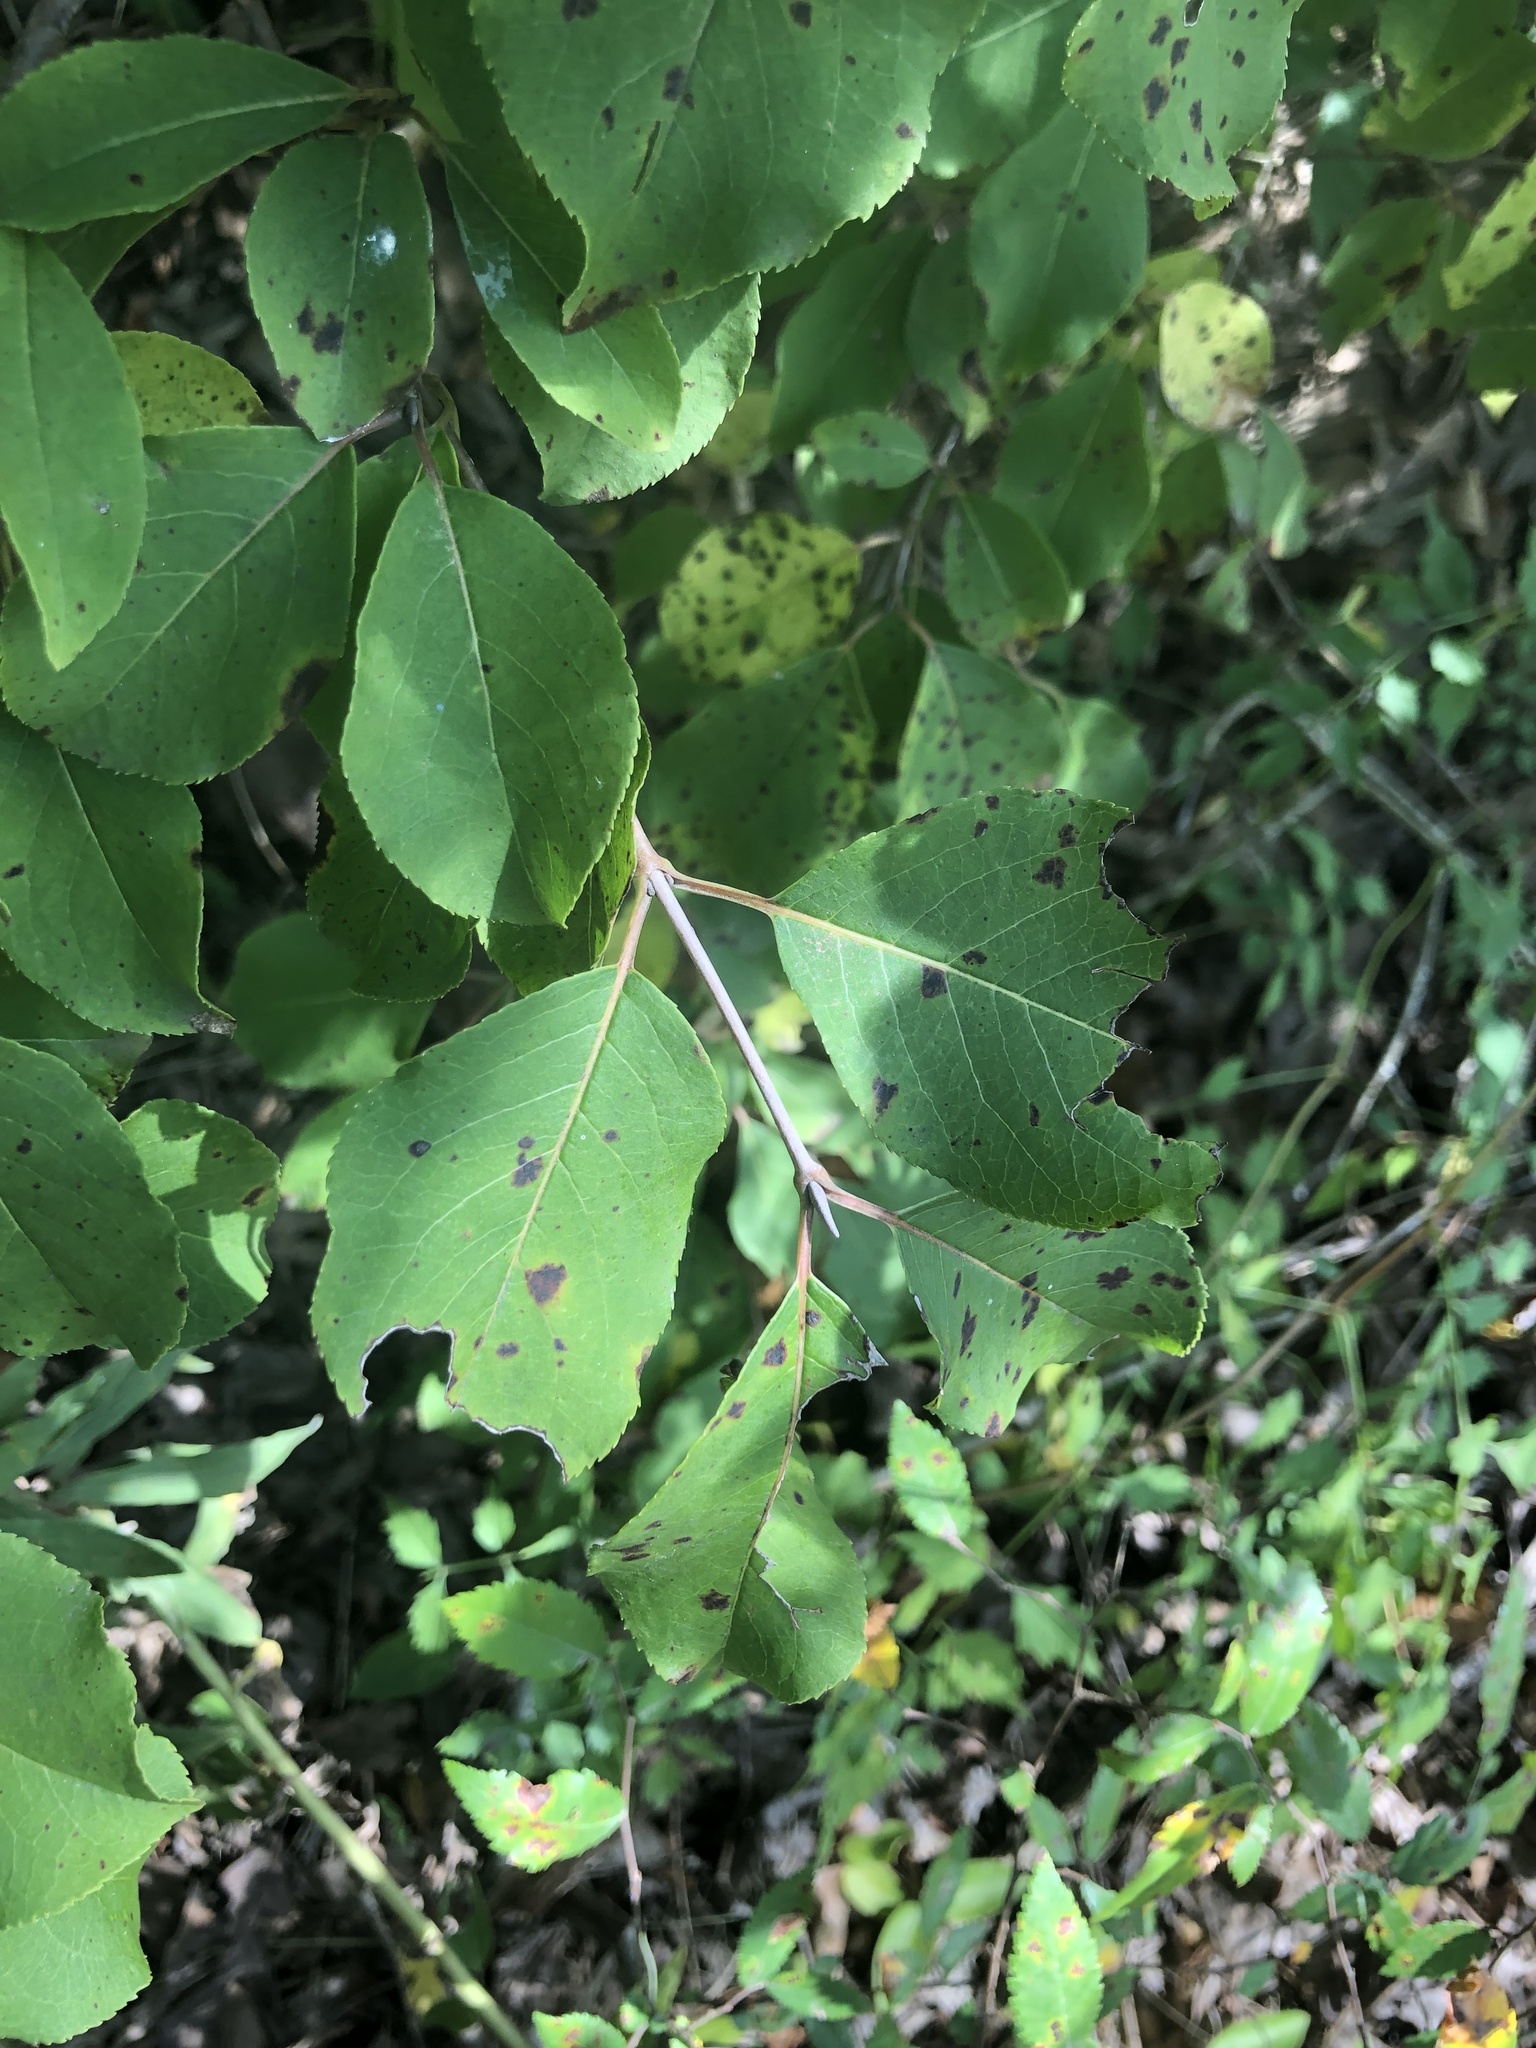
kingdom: Plantae
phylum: Tracheophyta
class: Magnoliopsida
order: Dipsacales
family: Viburnaceae
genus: Viburnum
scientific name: Viburnum prunifolium
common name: Black haw
